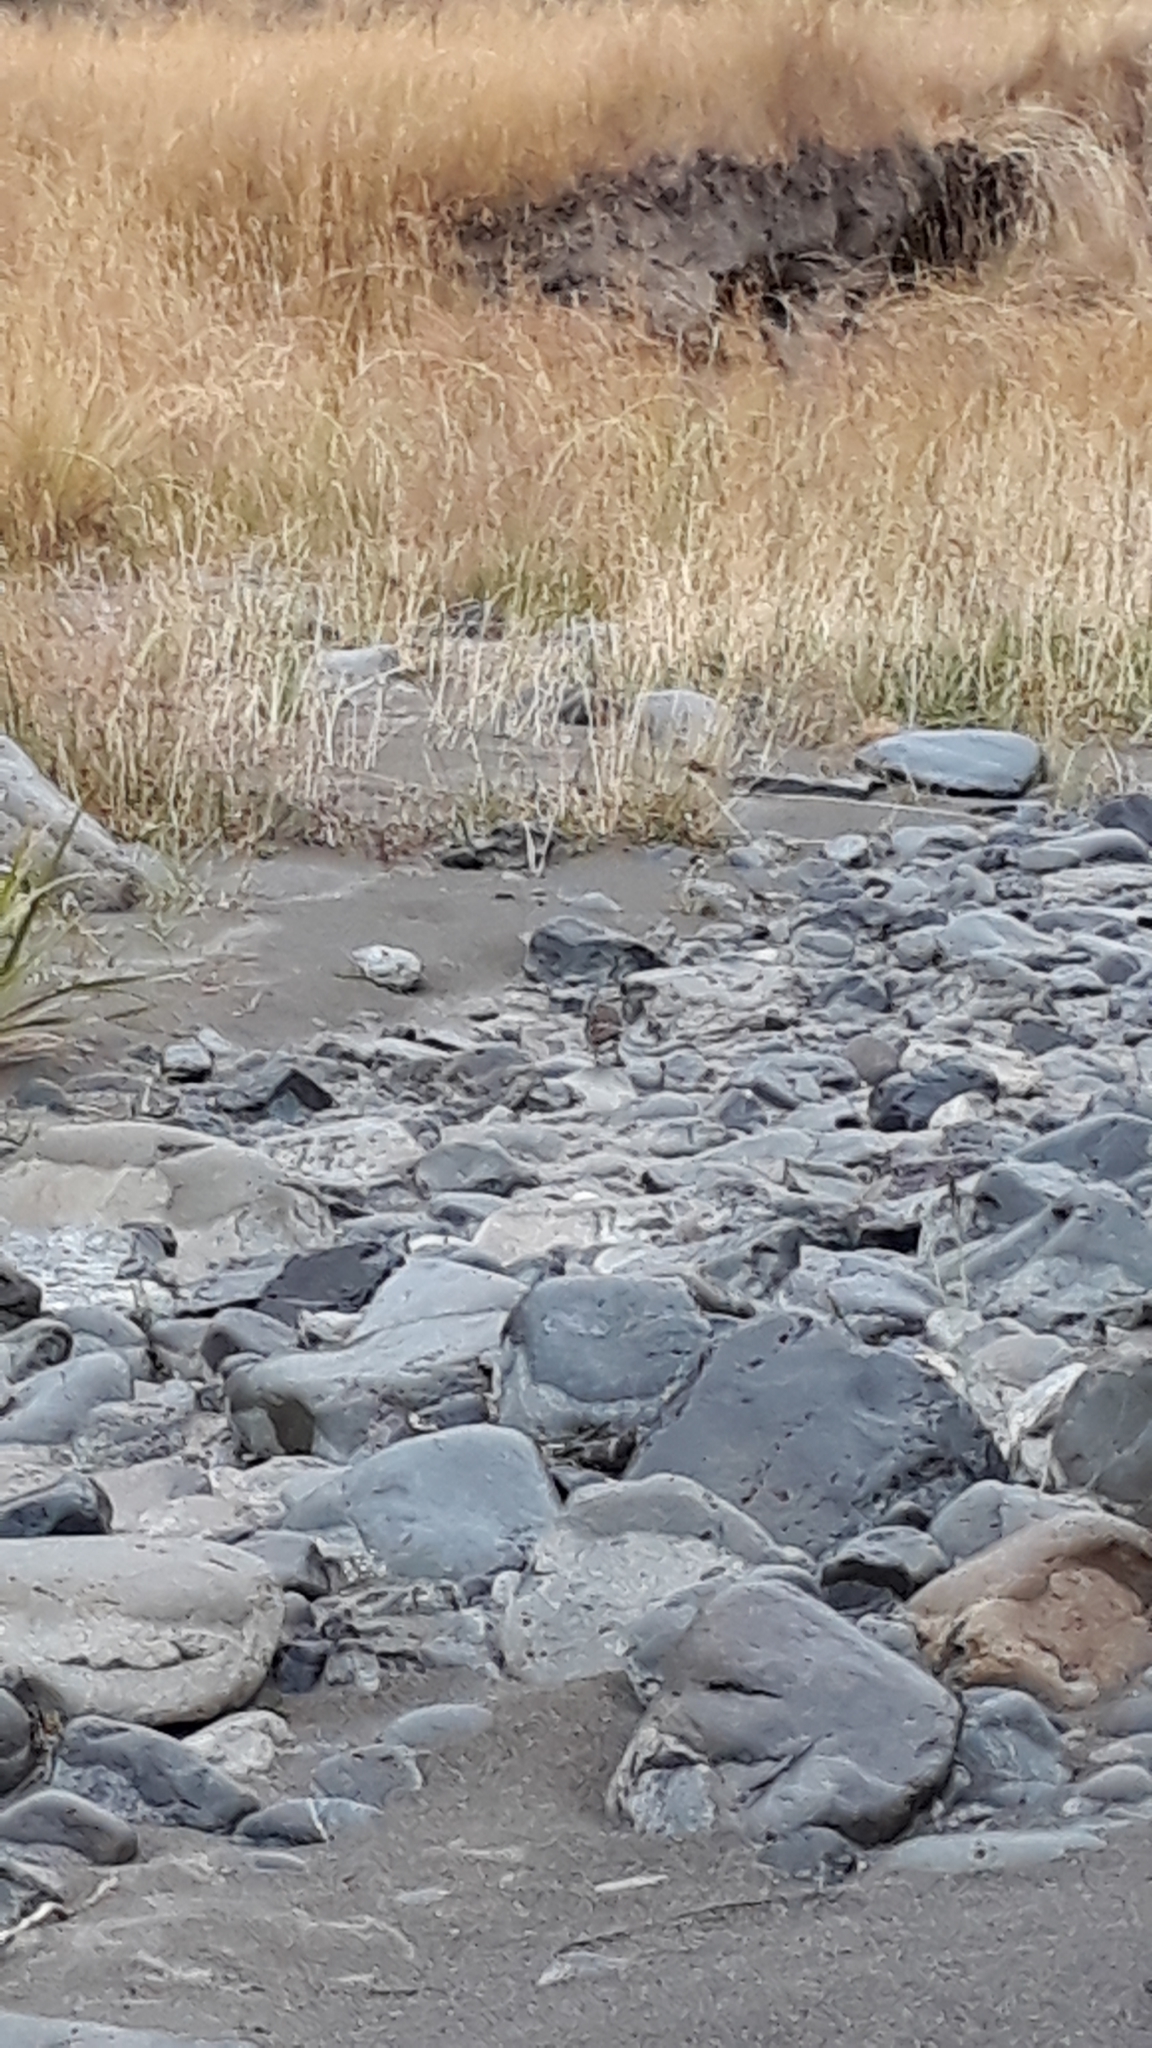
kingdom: Animalia
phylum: Chordata
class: Aves
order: Passeriformes
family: Motacillidae
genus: Anthus
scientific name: Anthus novaeseelandiae
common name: New zealand pipit
